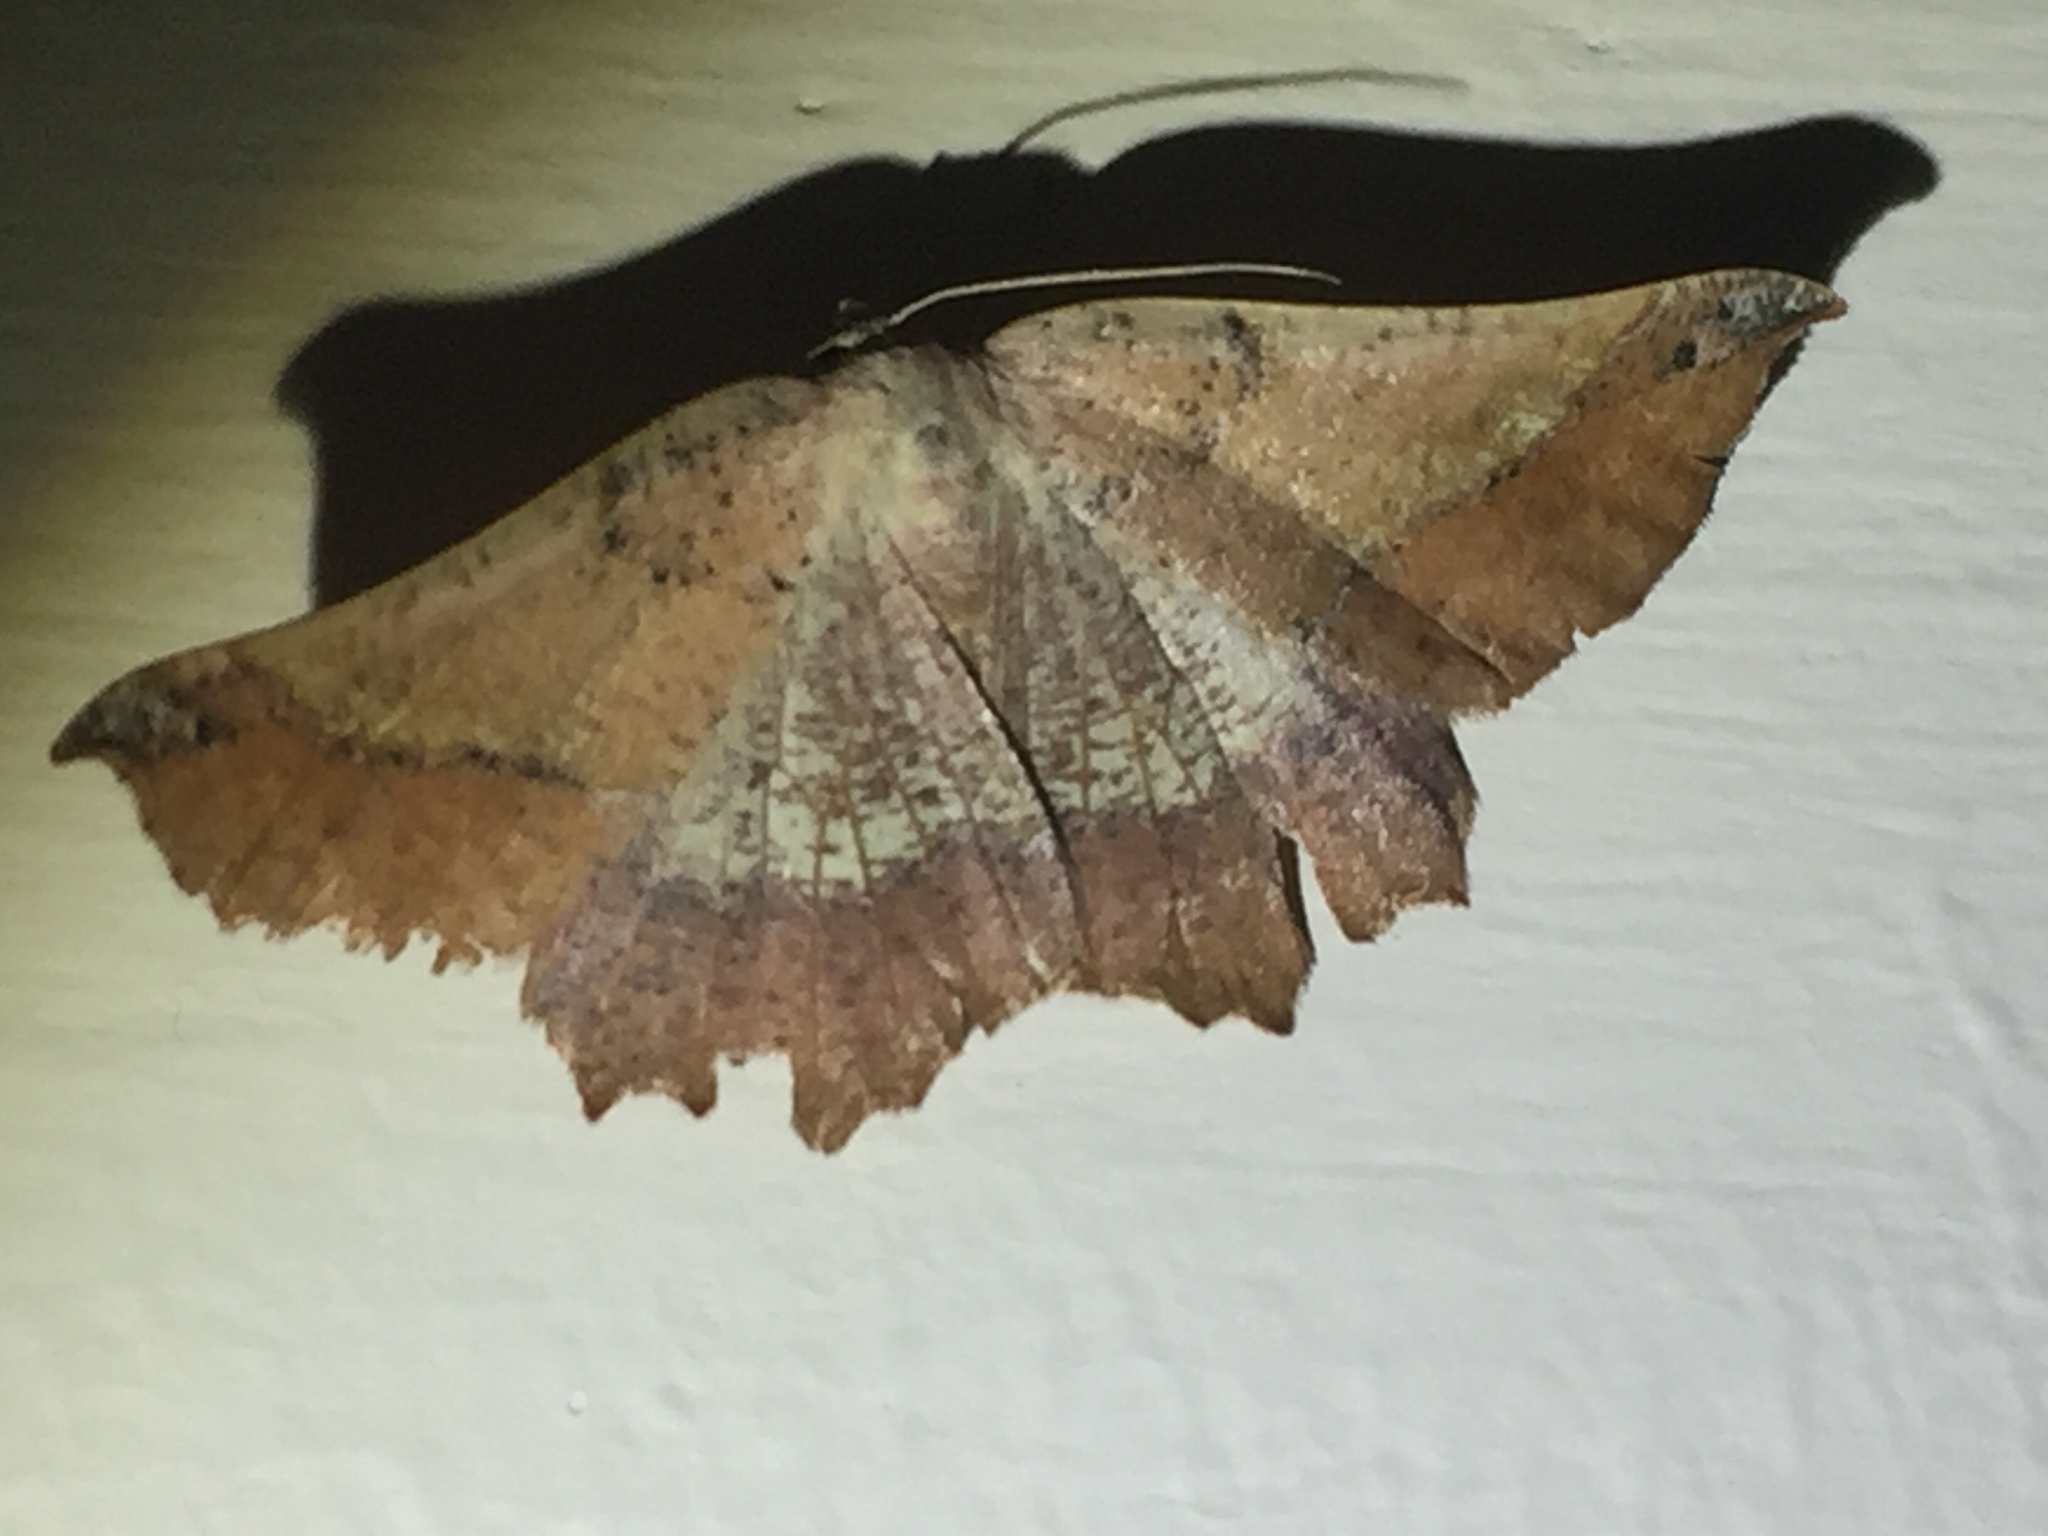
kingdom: Animalia
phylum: Arthropoda
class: Insecta
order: Lepidoptera
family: Geometridae
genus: Drepanogynis
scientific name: Drepanogynis mixtaria
